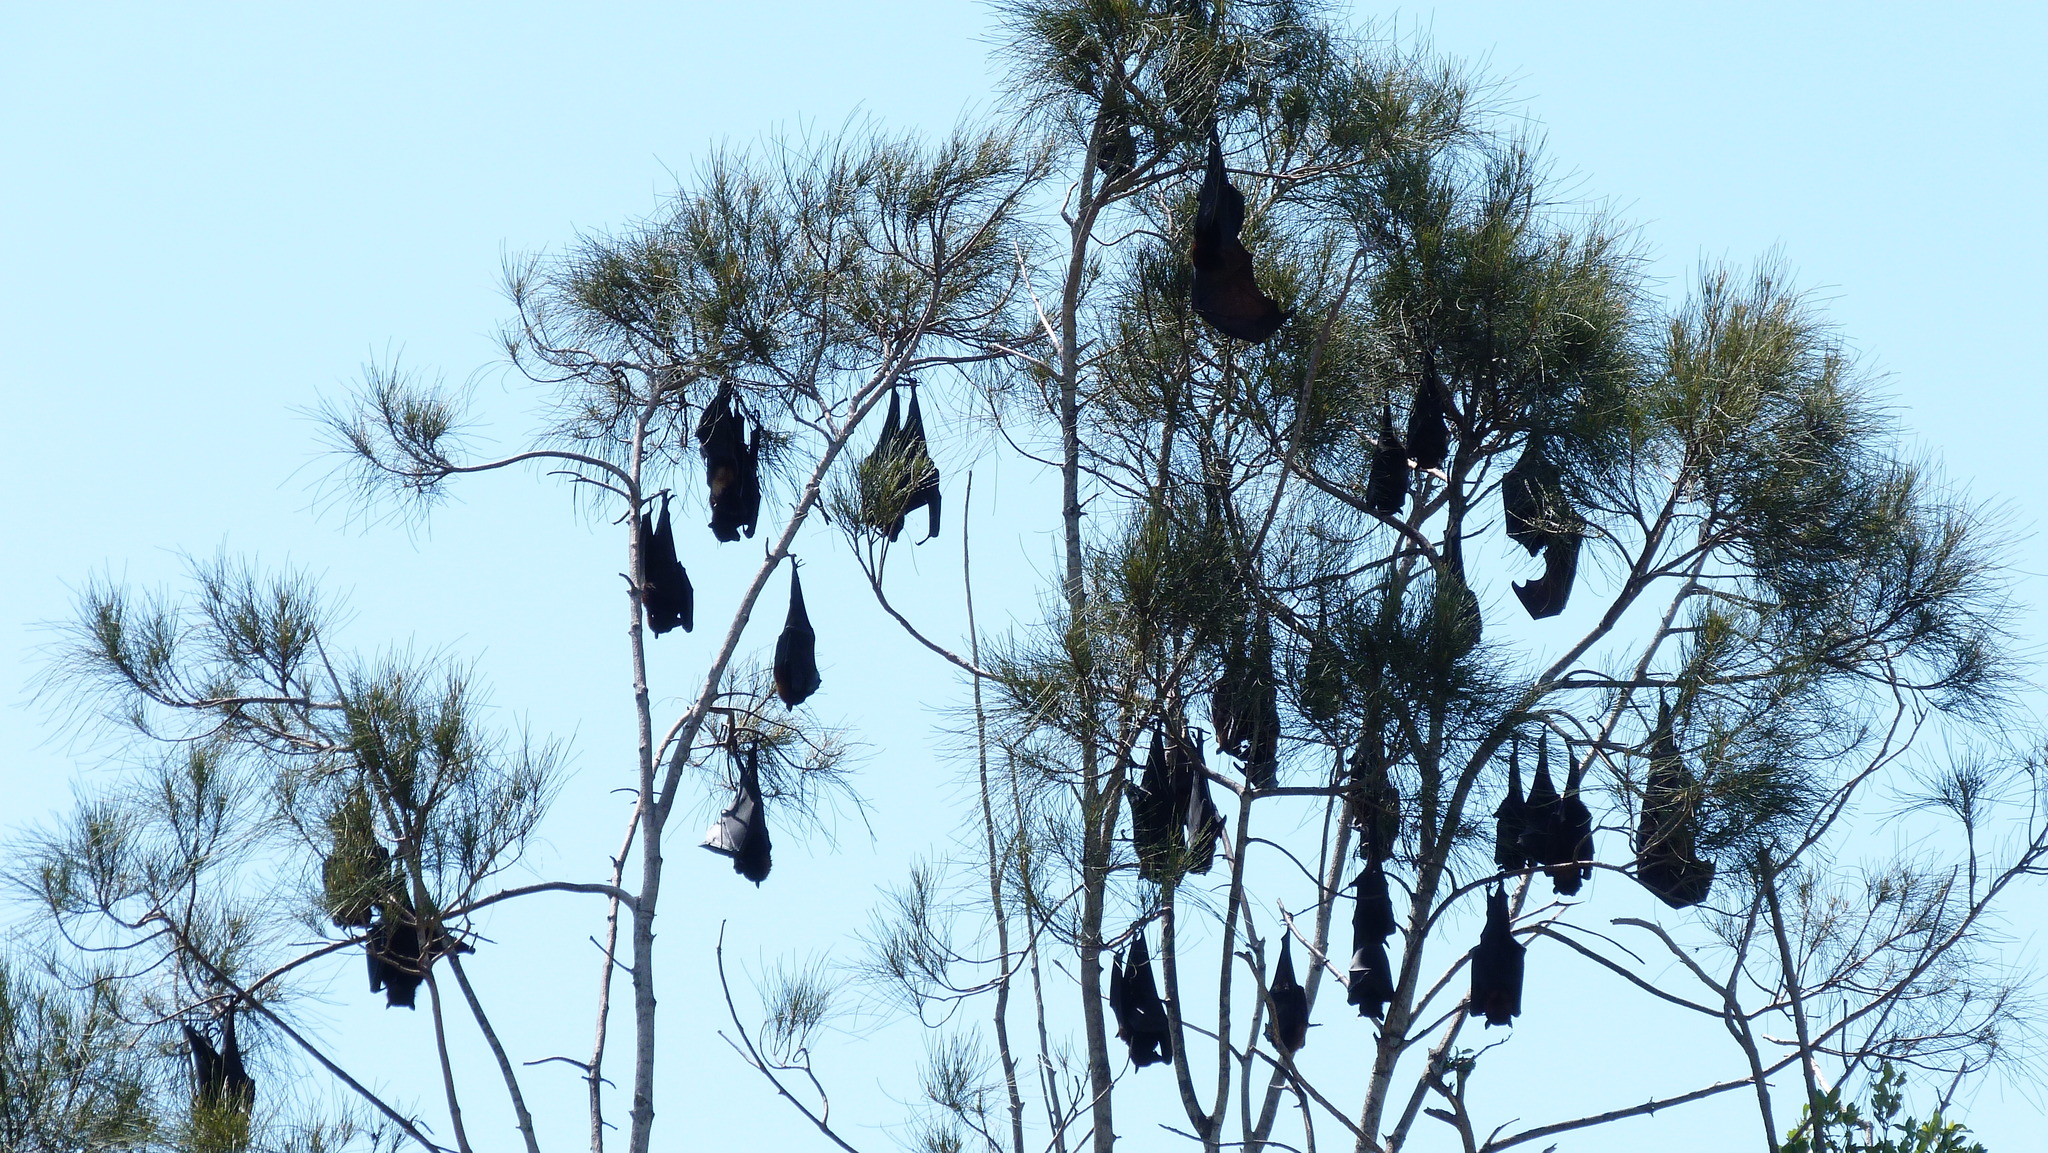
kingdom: Animalia
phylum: Chordata
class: Mammalia
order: Chiroptera
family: Pteropodidae
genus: Pteropus
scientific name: Pteropus poliocephalus
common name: Gray-headed flying fox
